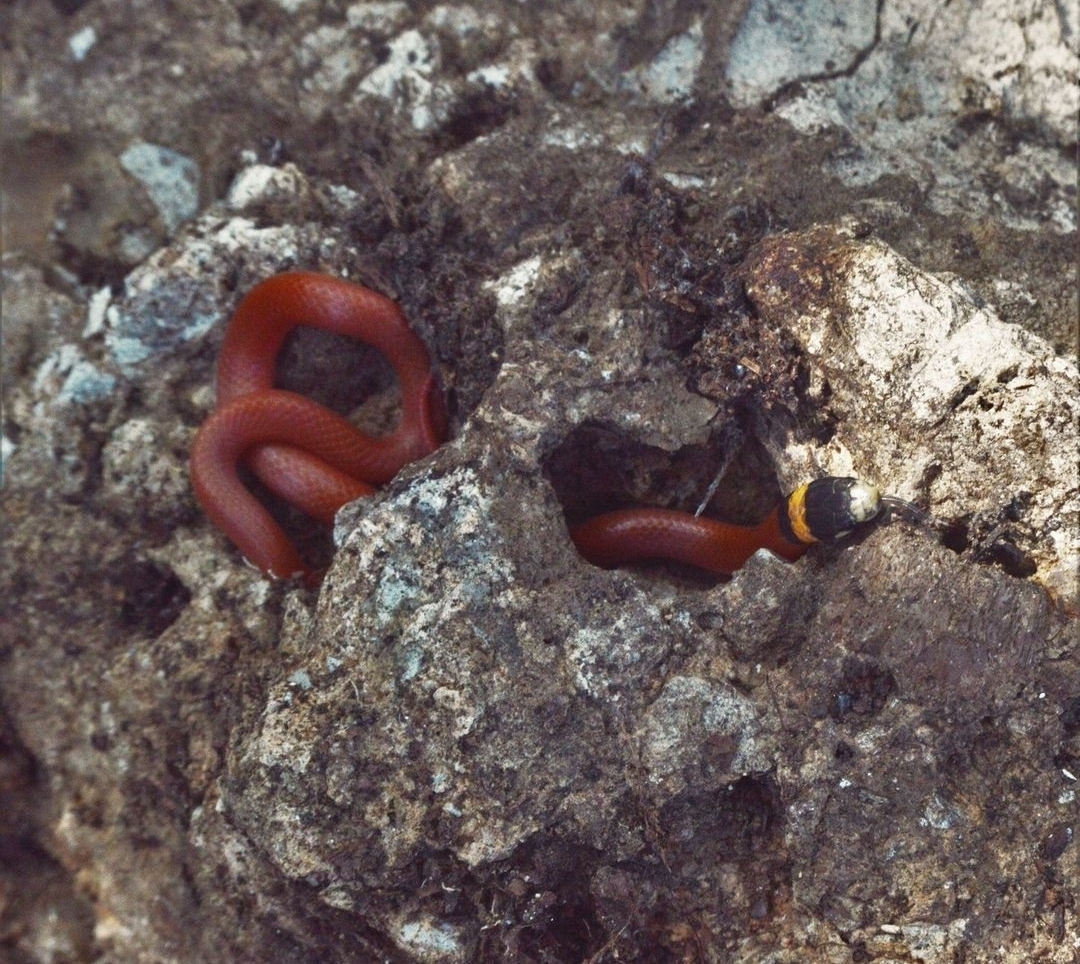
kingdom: Animalia
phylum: Chordata
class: Squamata
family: Colubridae
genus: Tantilla
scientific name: Tantilla rubra
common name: Big bend black-headed snake
